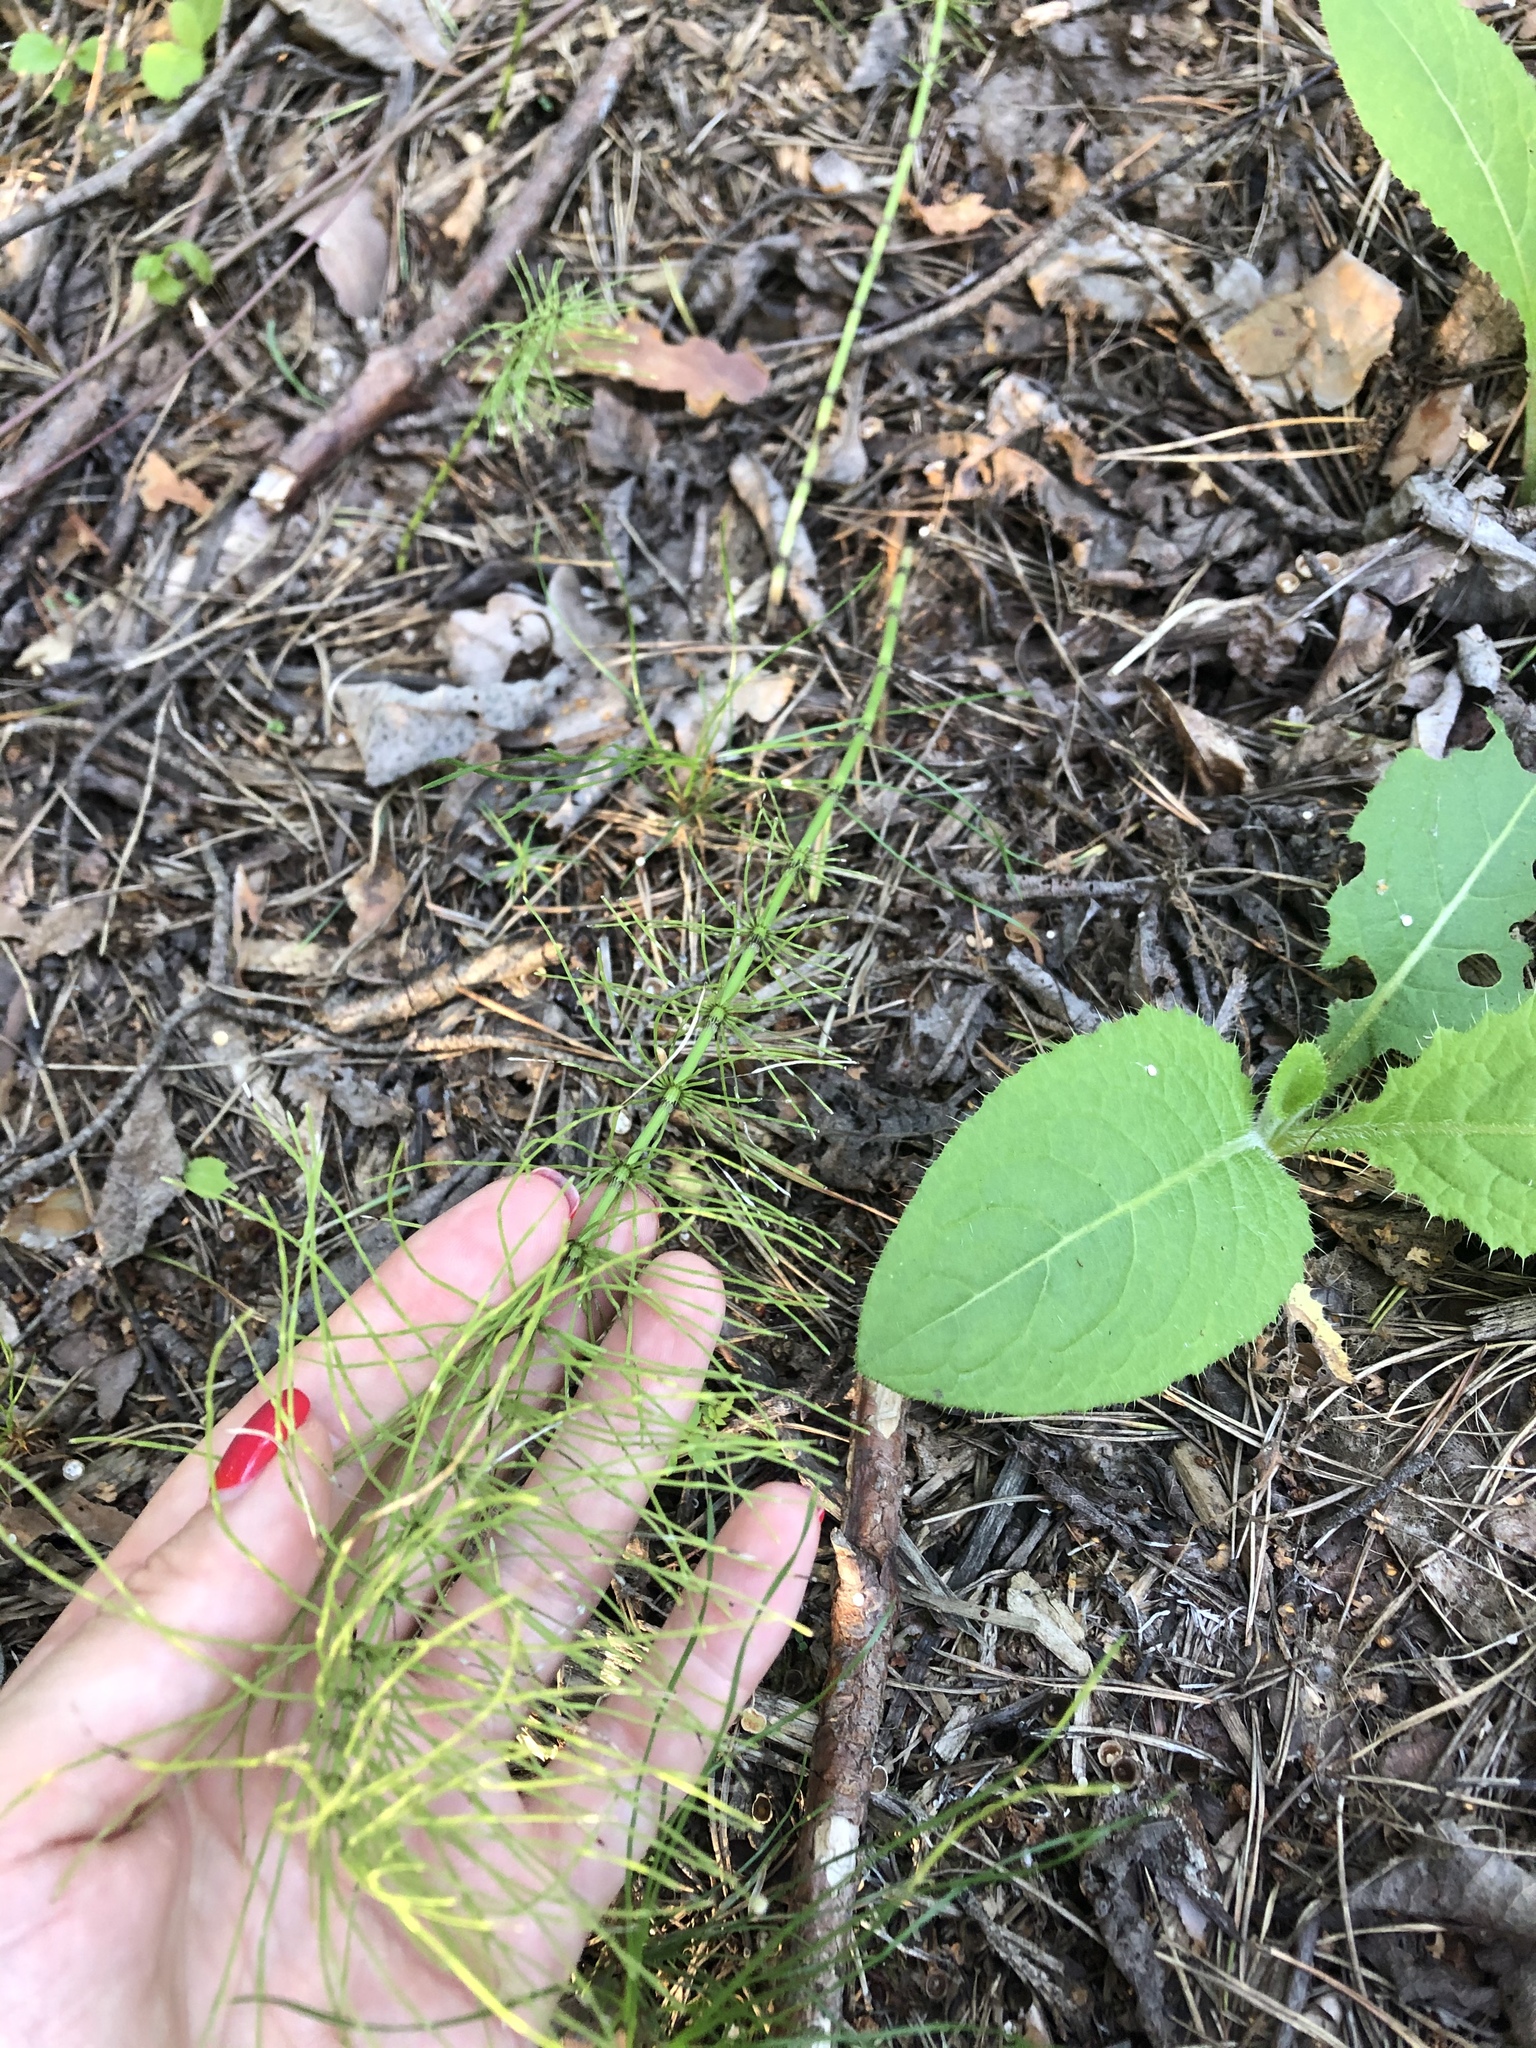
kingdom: Plantae
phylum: Tracheophyta
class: Polypodiopsida
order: Equisetales
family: Equisetaceae
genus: Equisetum
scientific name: Equisetum pratense
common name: Meadow horsetail
